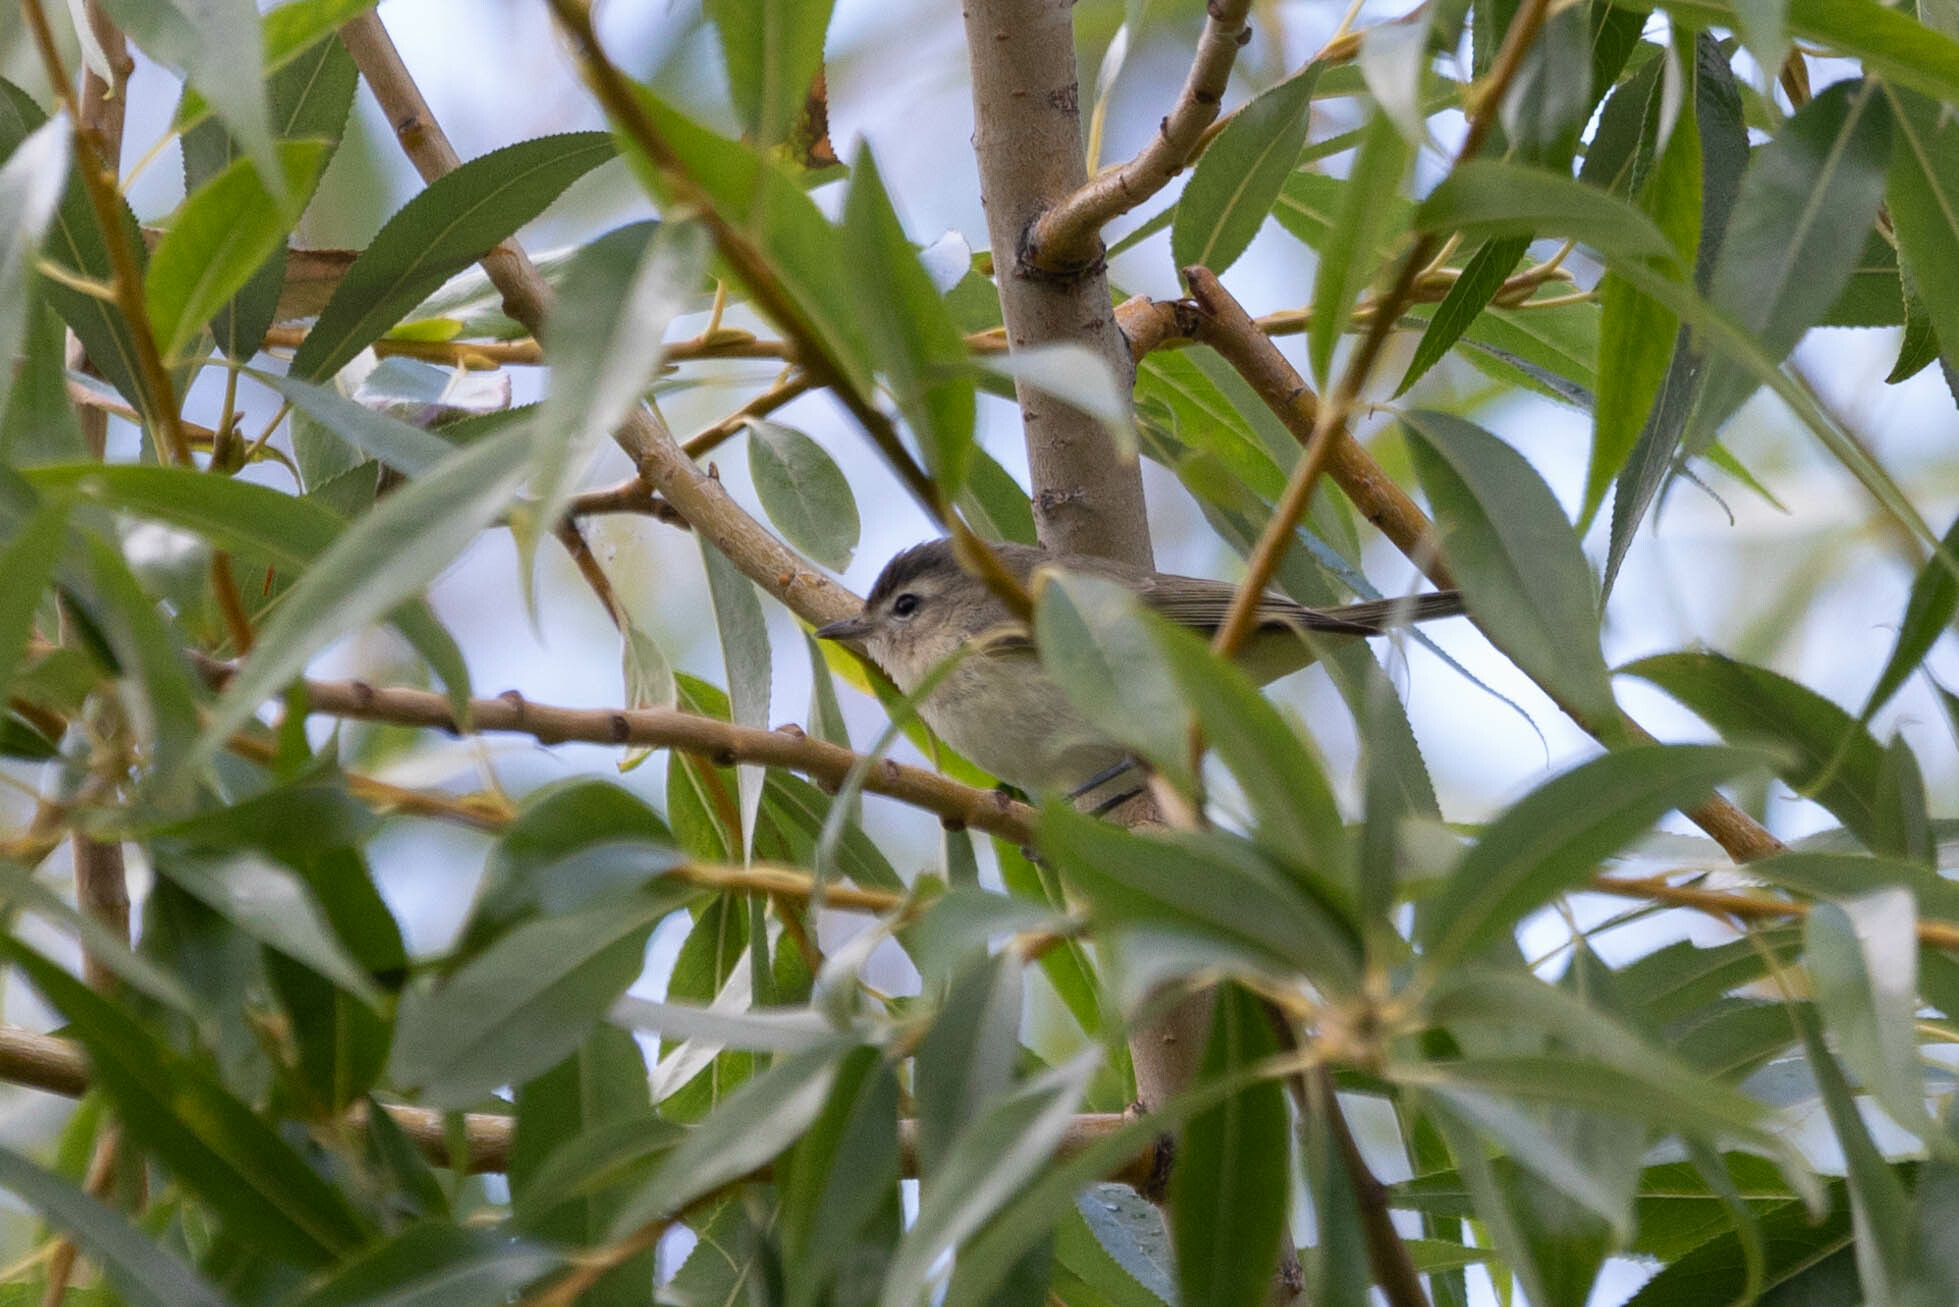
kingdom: Animalia
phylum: Chordata
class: Aves
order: Passeriformes
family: Vireonidae
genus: Vireo
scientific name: Vireo gilvus
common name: Warbling vireo
